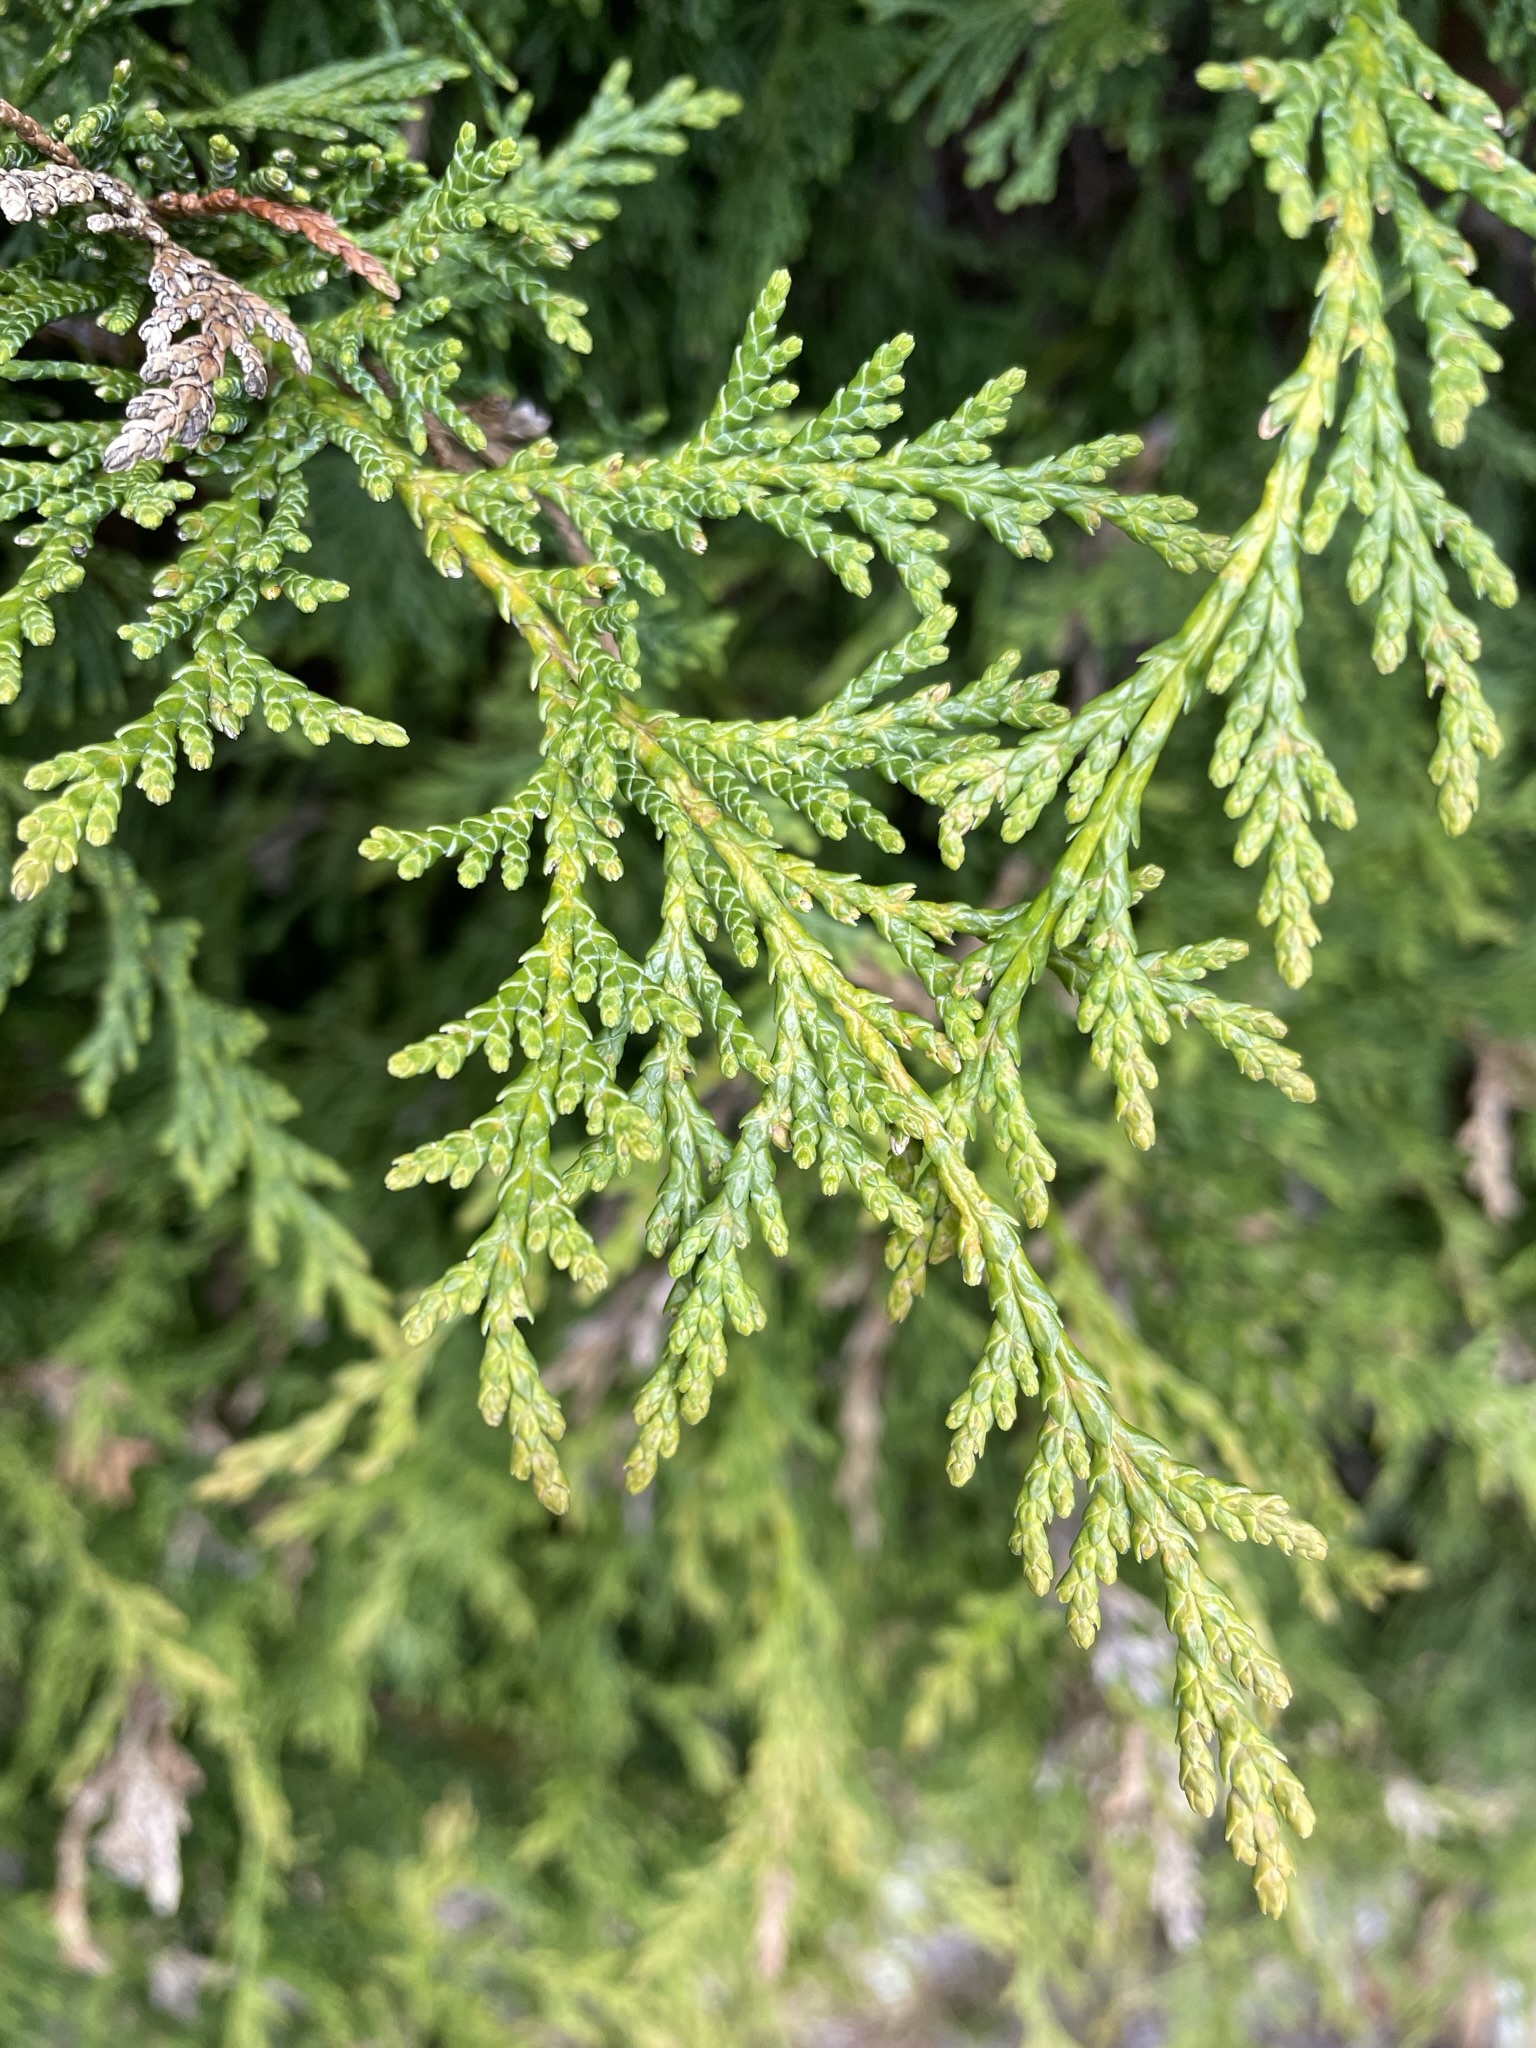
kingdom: Plantae
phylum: Tracheophyta
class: Pinopsida
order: Pinales
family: Cupressaceae
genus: Cupressus
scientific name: Cupressus macrocarpa
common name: Monterey cypress
